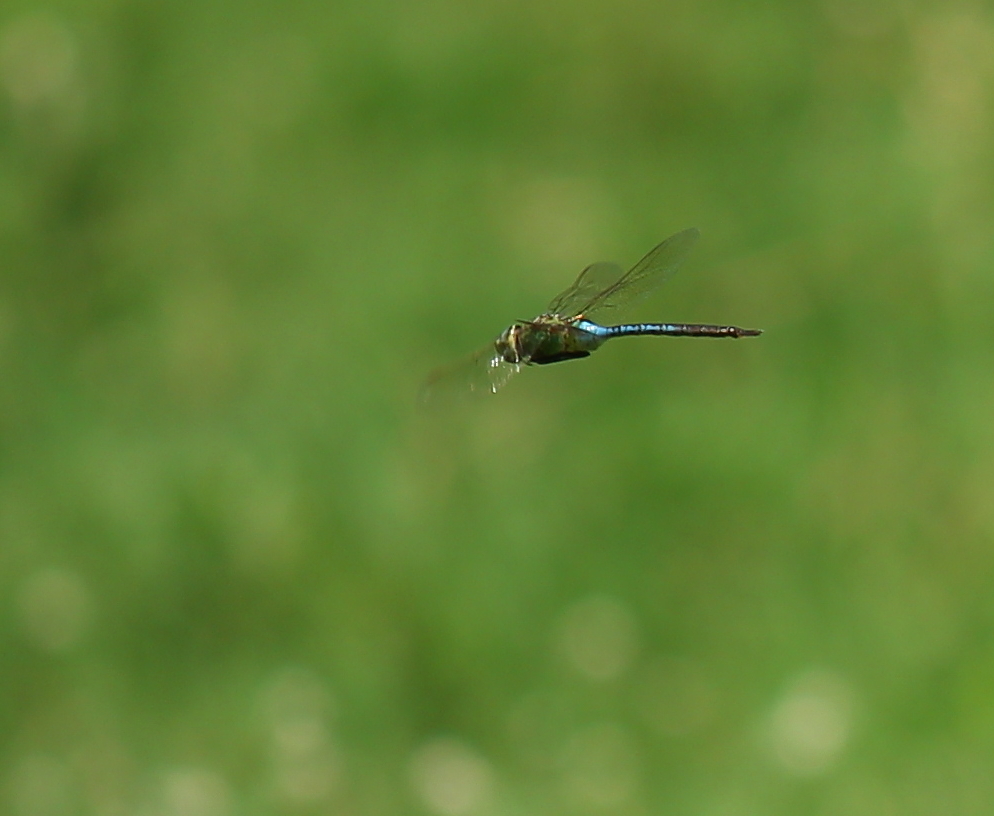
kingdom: Animalia
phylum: Arthropoda
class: Insecta
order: Odonata
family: Aeshnidae
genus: Anax
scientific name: Anax junius
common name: Common green darner
